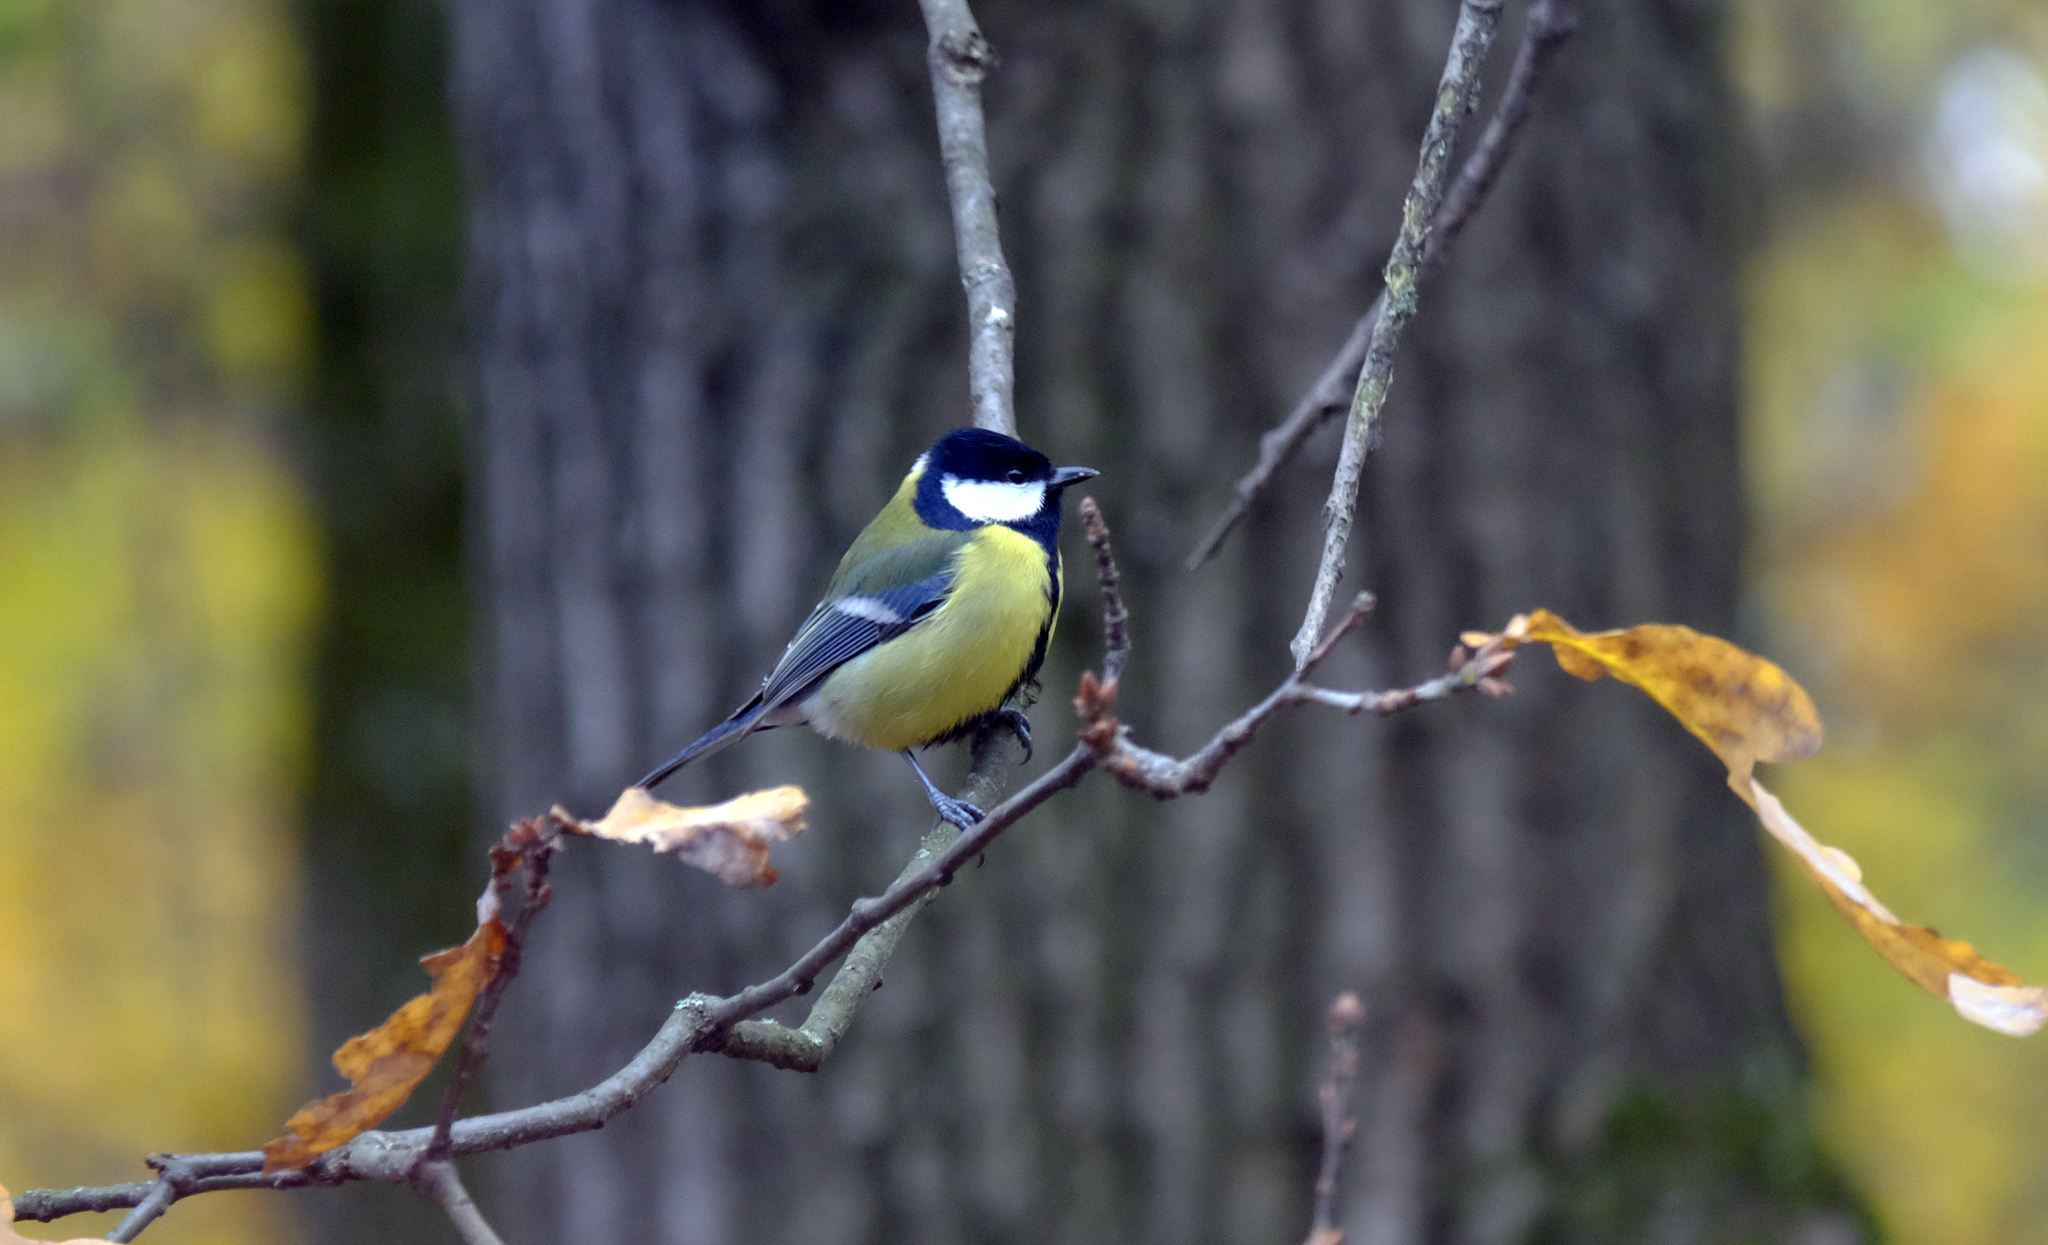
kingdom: Animalia
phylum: Chordata
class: Aves
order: Passeriformes
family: Paridae
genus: Parus
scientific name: Parus major
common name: Great tit
